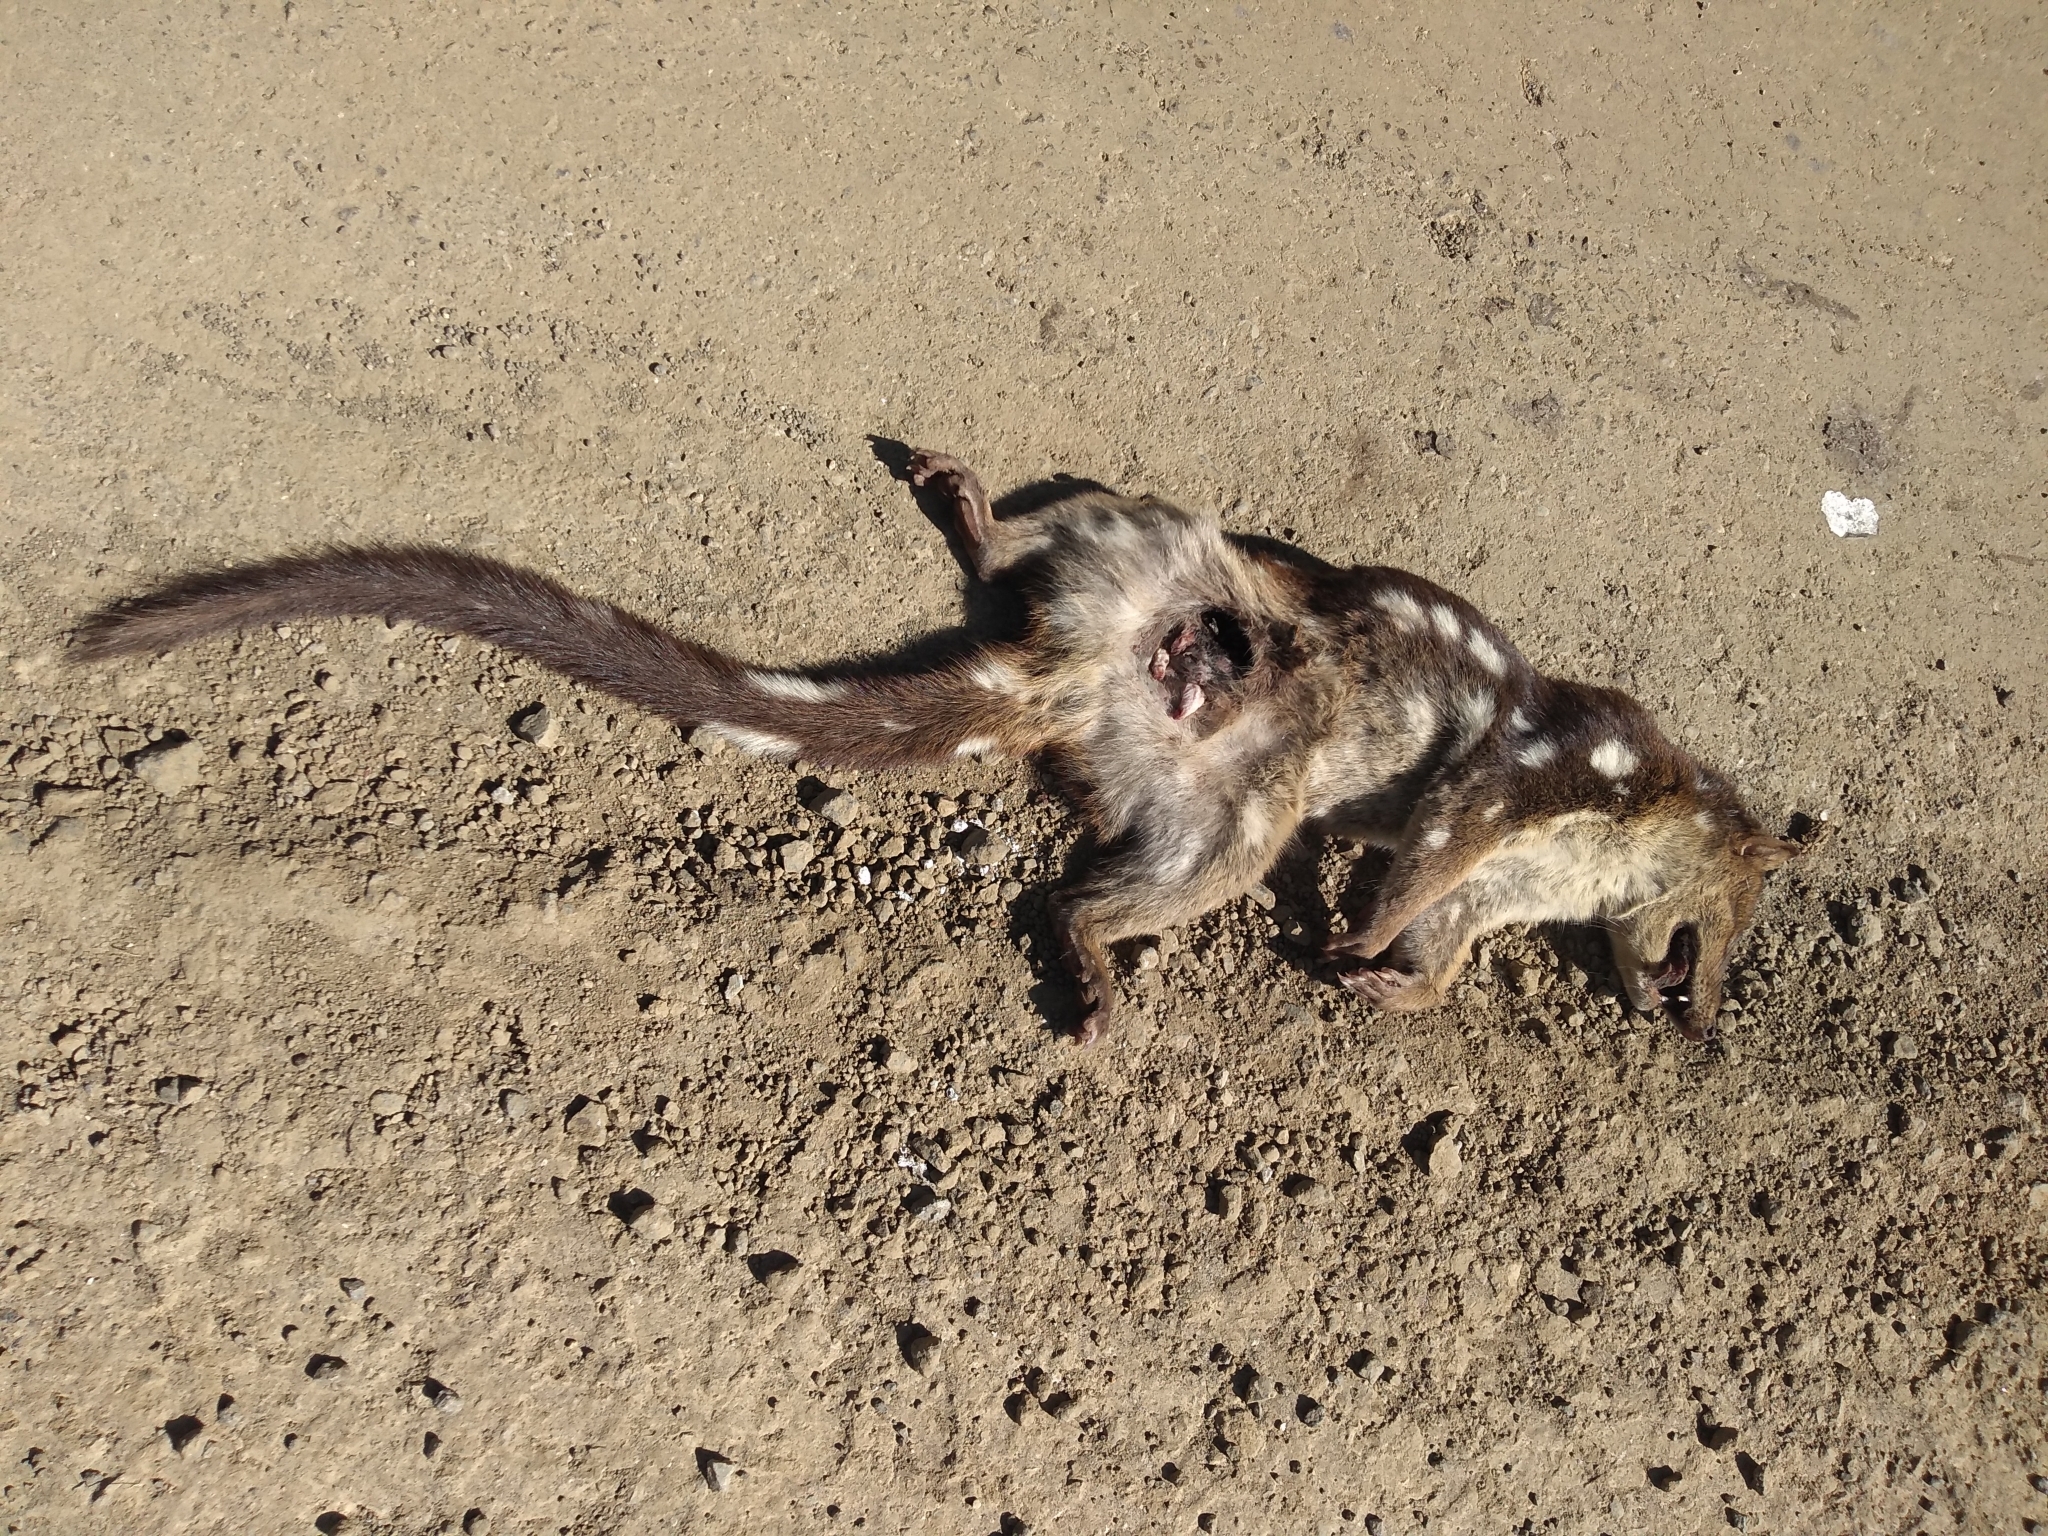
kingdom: Animalia
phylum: Chordata
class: Mammalia
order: Dasyuromorphia
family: Dasyuridae
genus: Dasyurus
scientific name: Dasyurus maculatus
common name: Tiger quoll
